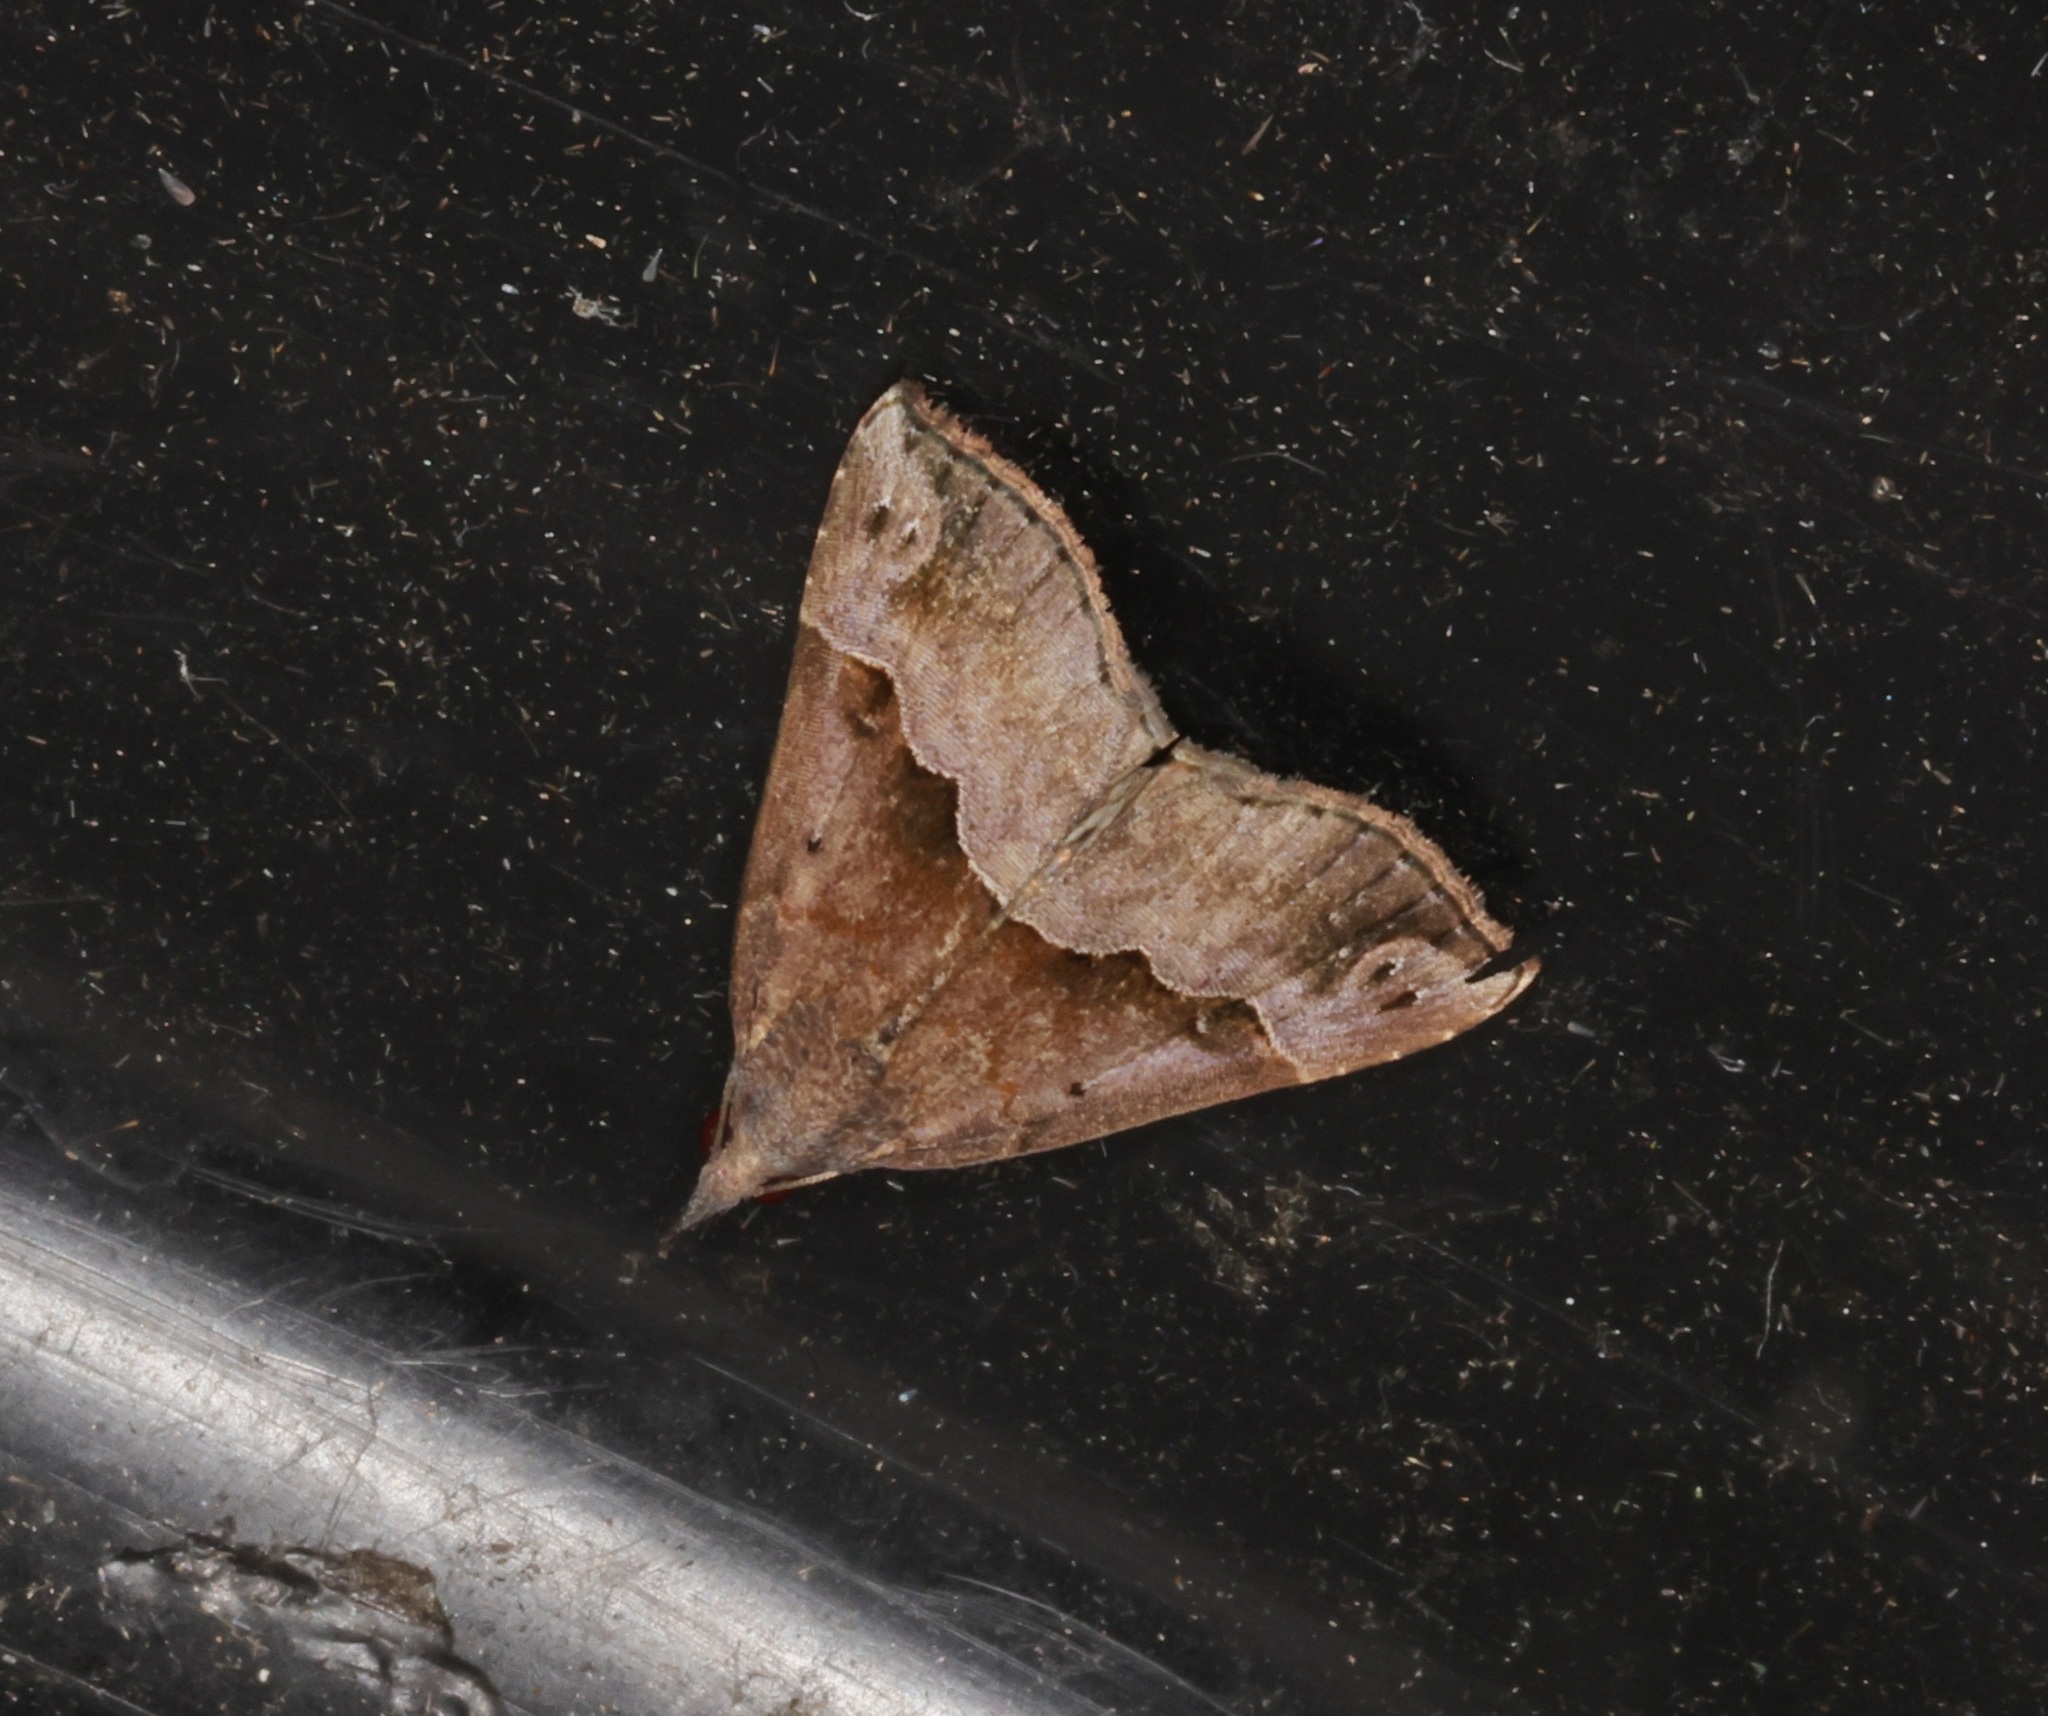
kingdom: Animalia
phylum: Arthropoda
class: Insecta
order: Lepidoptera
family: Erebidae
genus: Hypena
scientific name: Hypena Dichromia indicatalis
